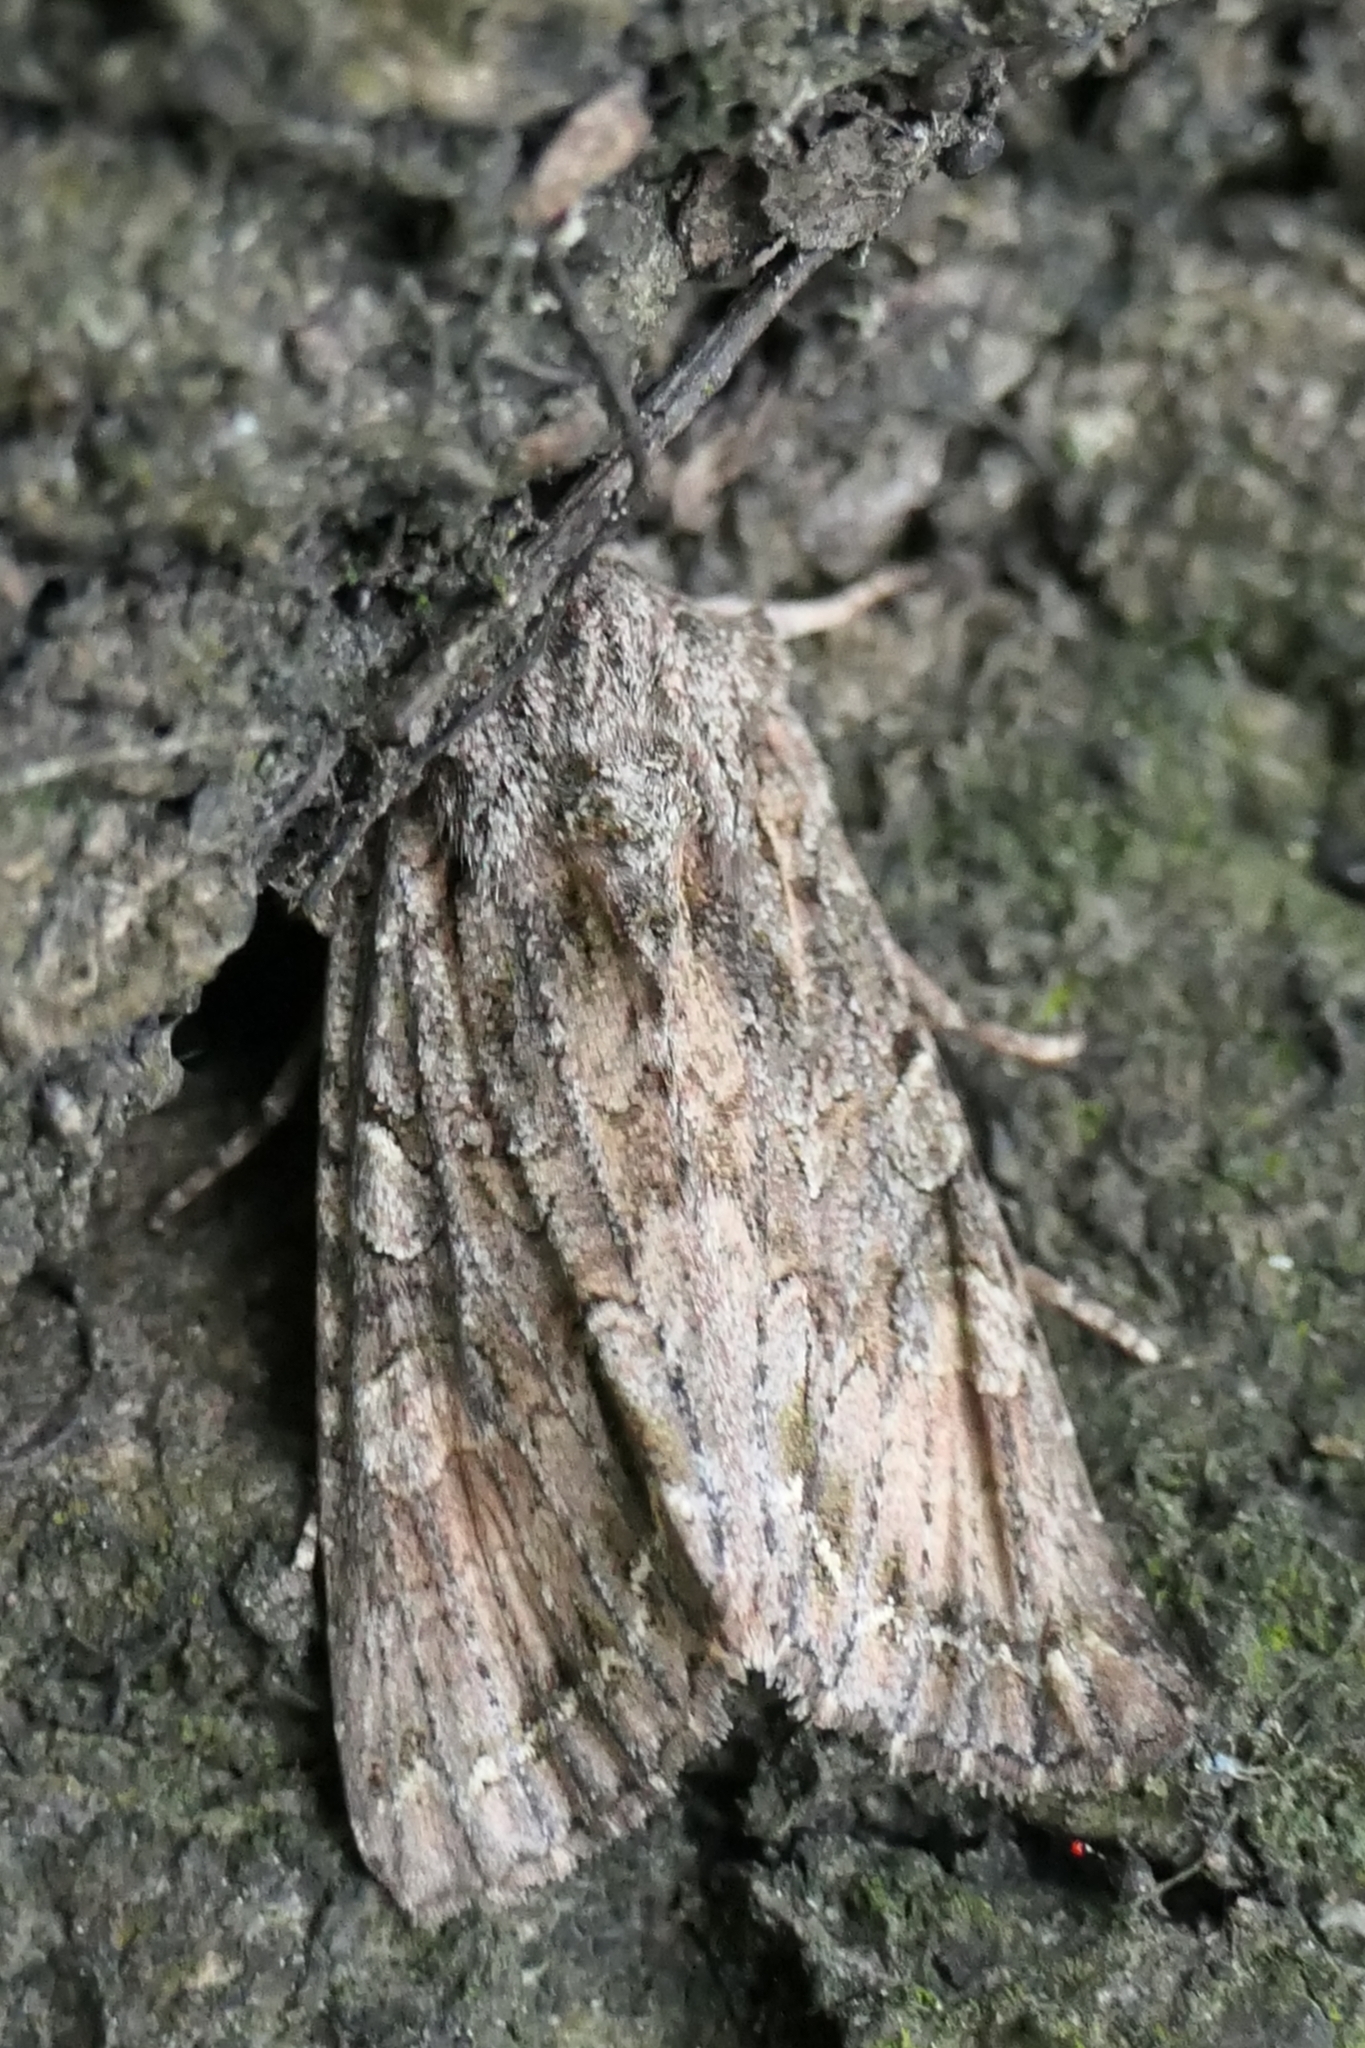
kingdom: Animalia
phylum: Arthropoda
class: Insecta
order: Lepidoptera
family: Noctuidae
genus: Ichneutica
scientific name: Ichneutica mutans
